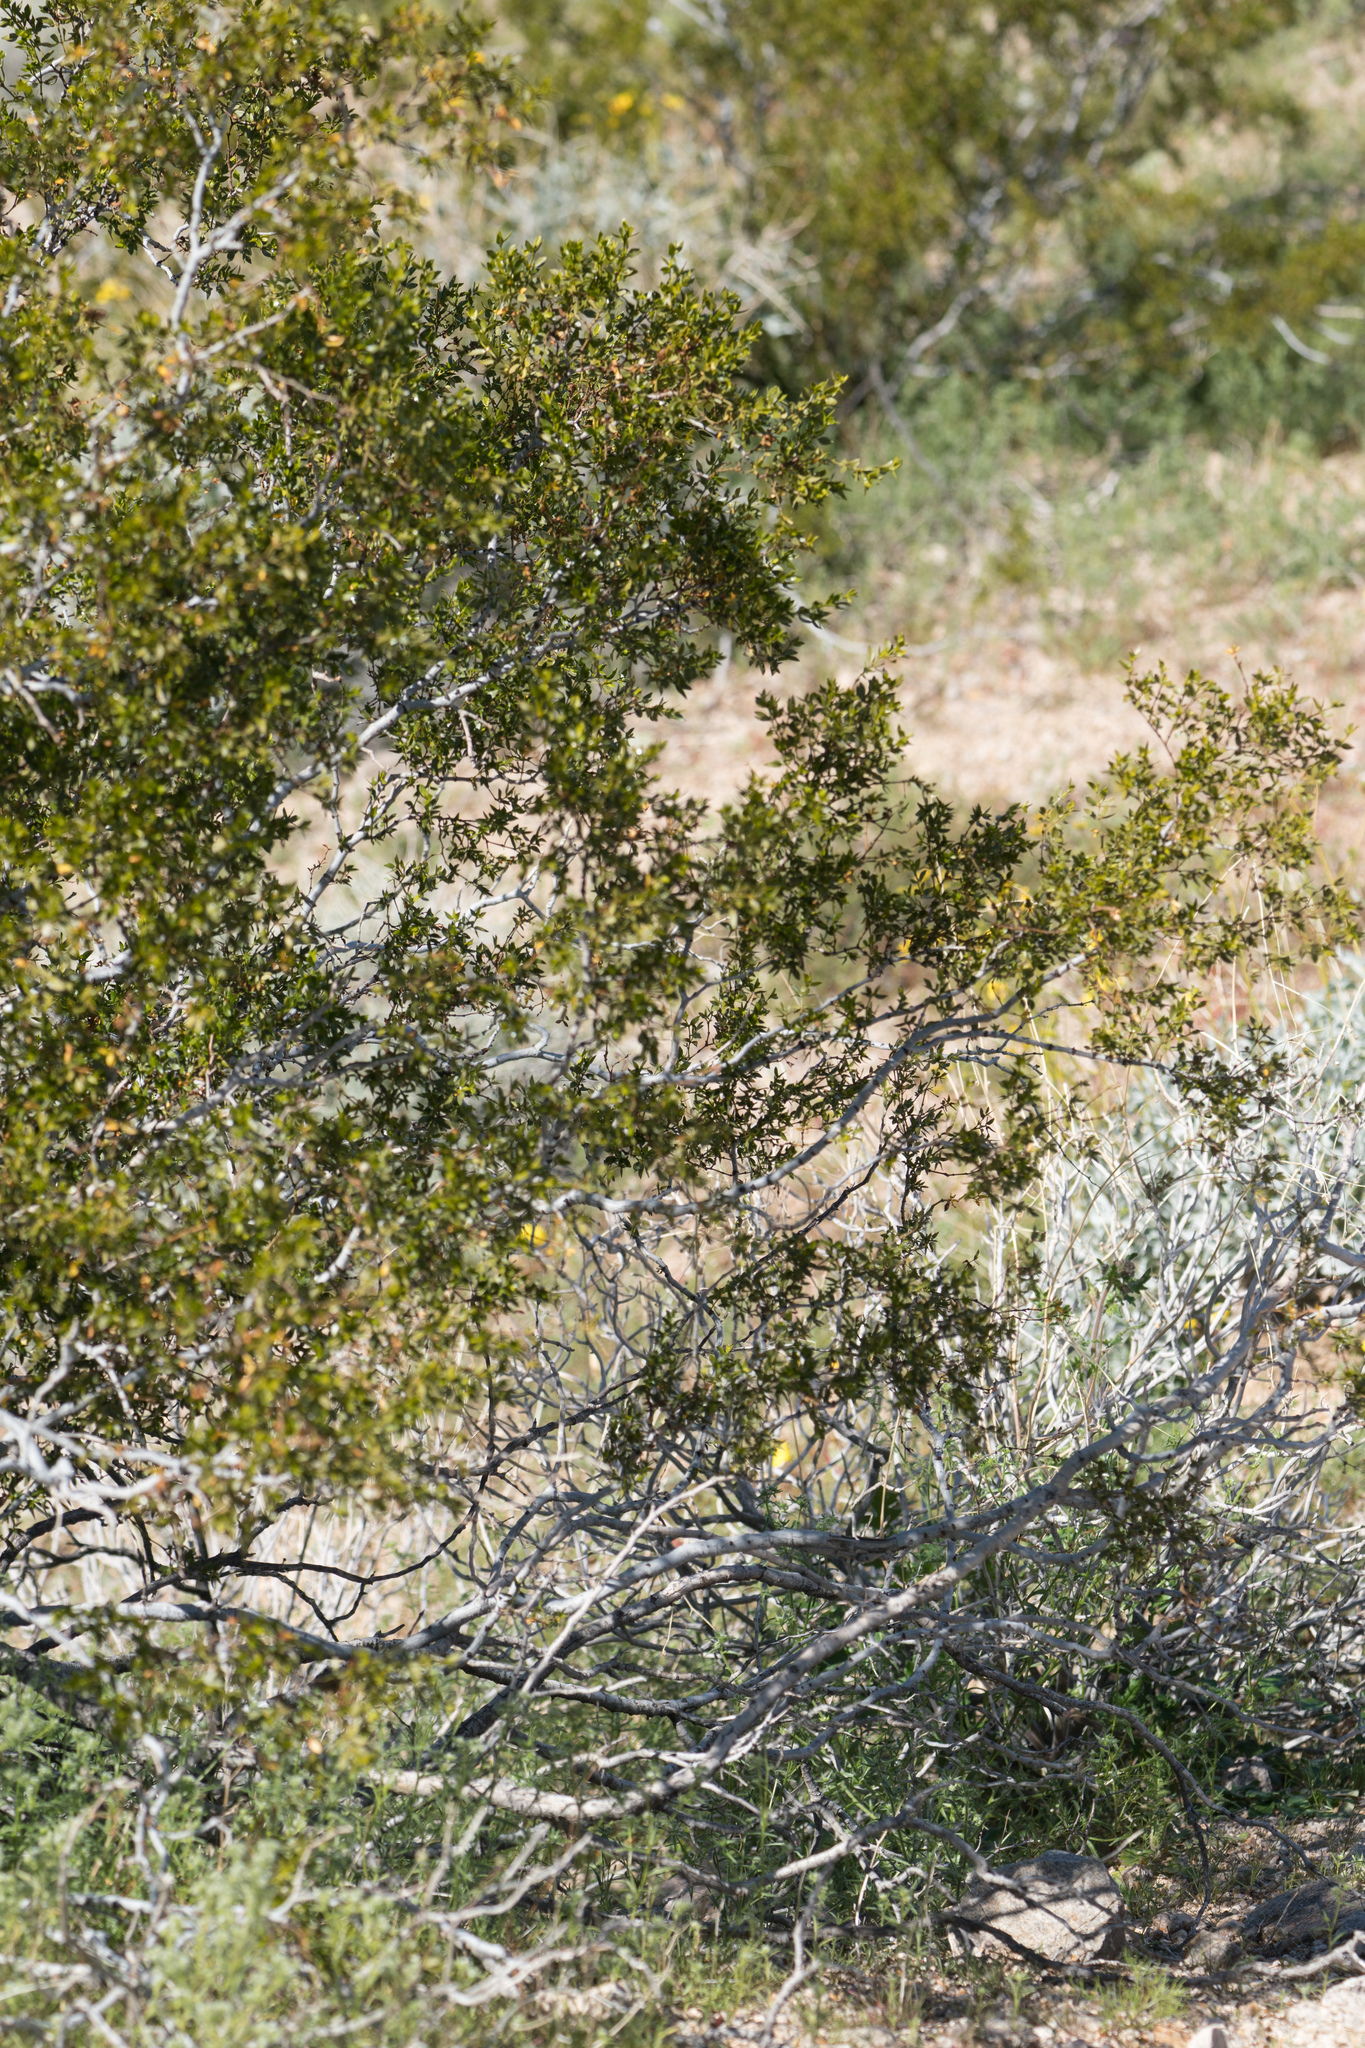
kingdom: Plantae
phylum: Tracheophyta
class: Magnoliopsida
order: Zygophyllales
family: Zygophyllaceae
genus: Larrea
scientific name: Larrea tridentata
